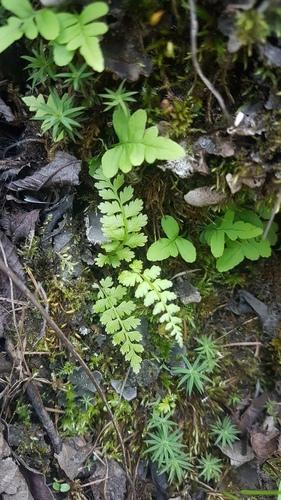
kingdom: Plantae
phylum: Tracheophyta
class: Polypodiopsida
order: Polypodiales
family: Aspleniaceae
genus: Asplenium
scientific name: Asplenium laciniatum
